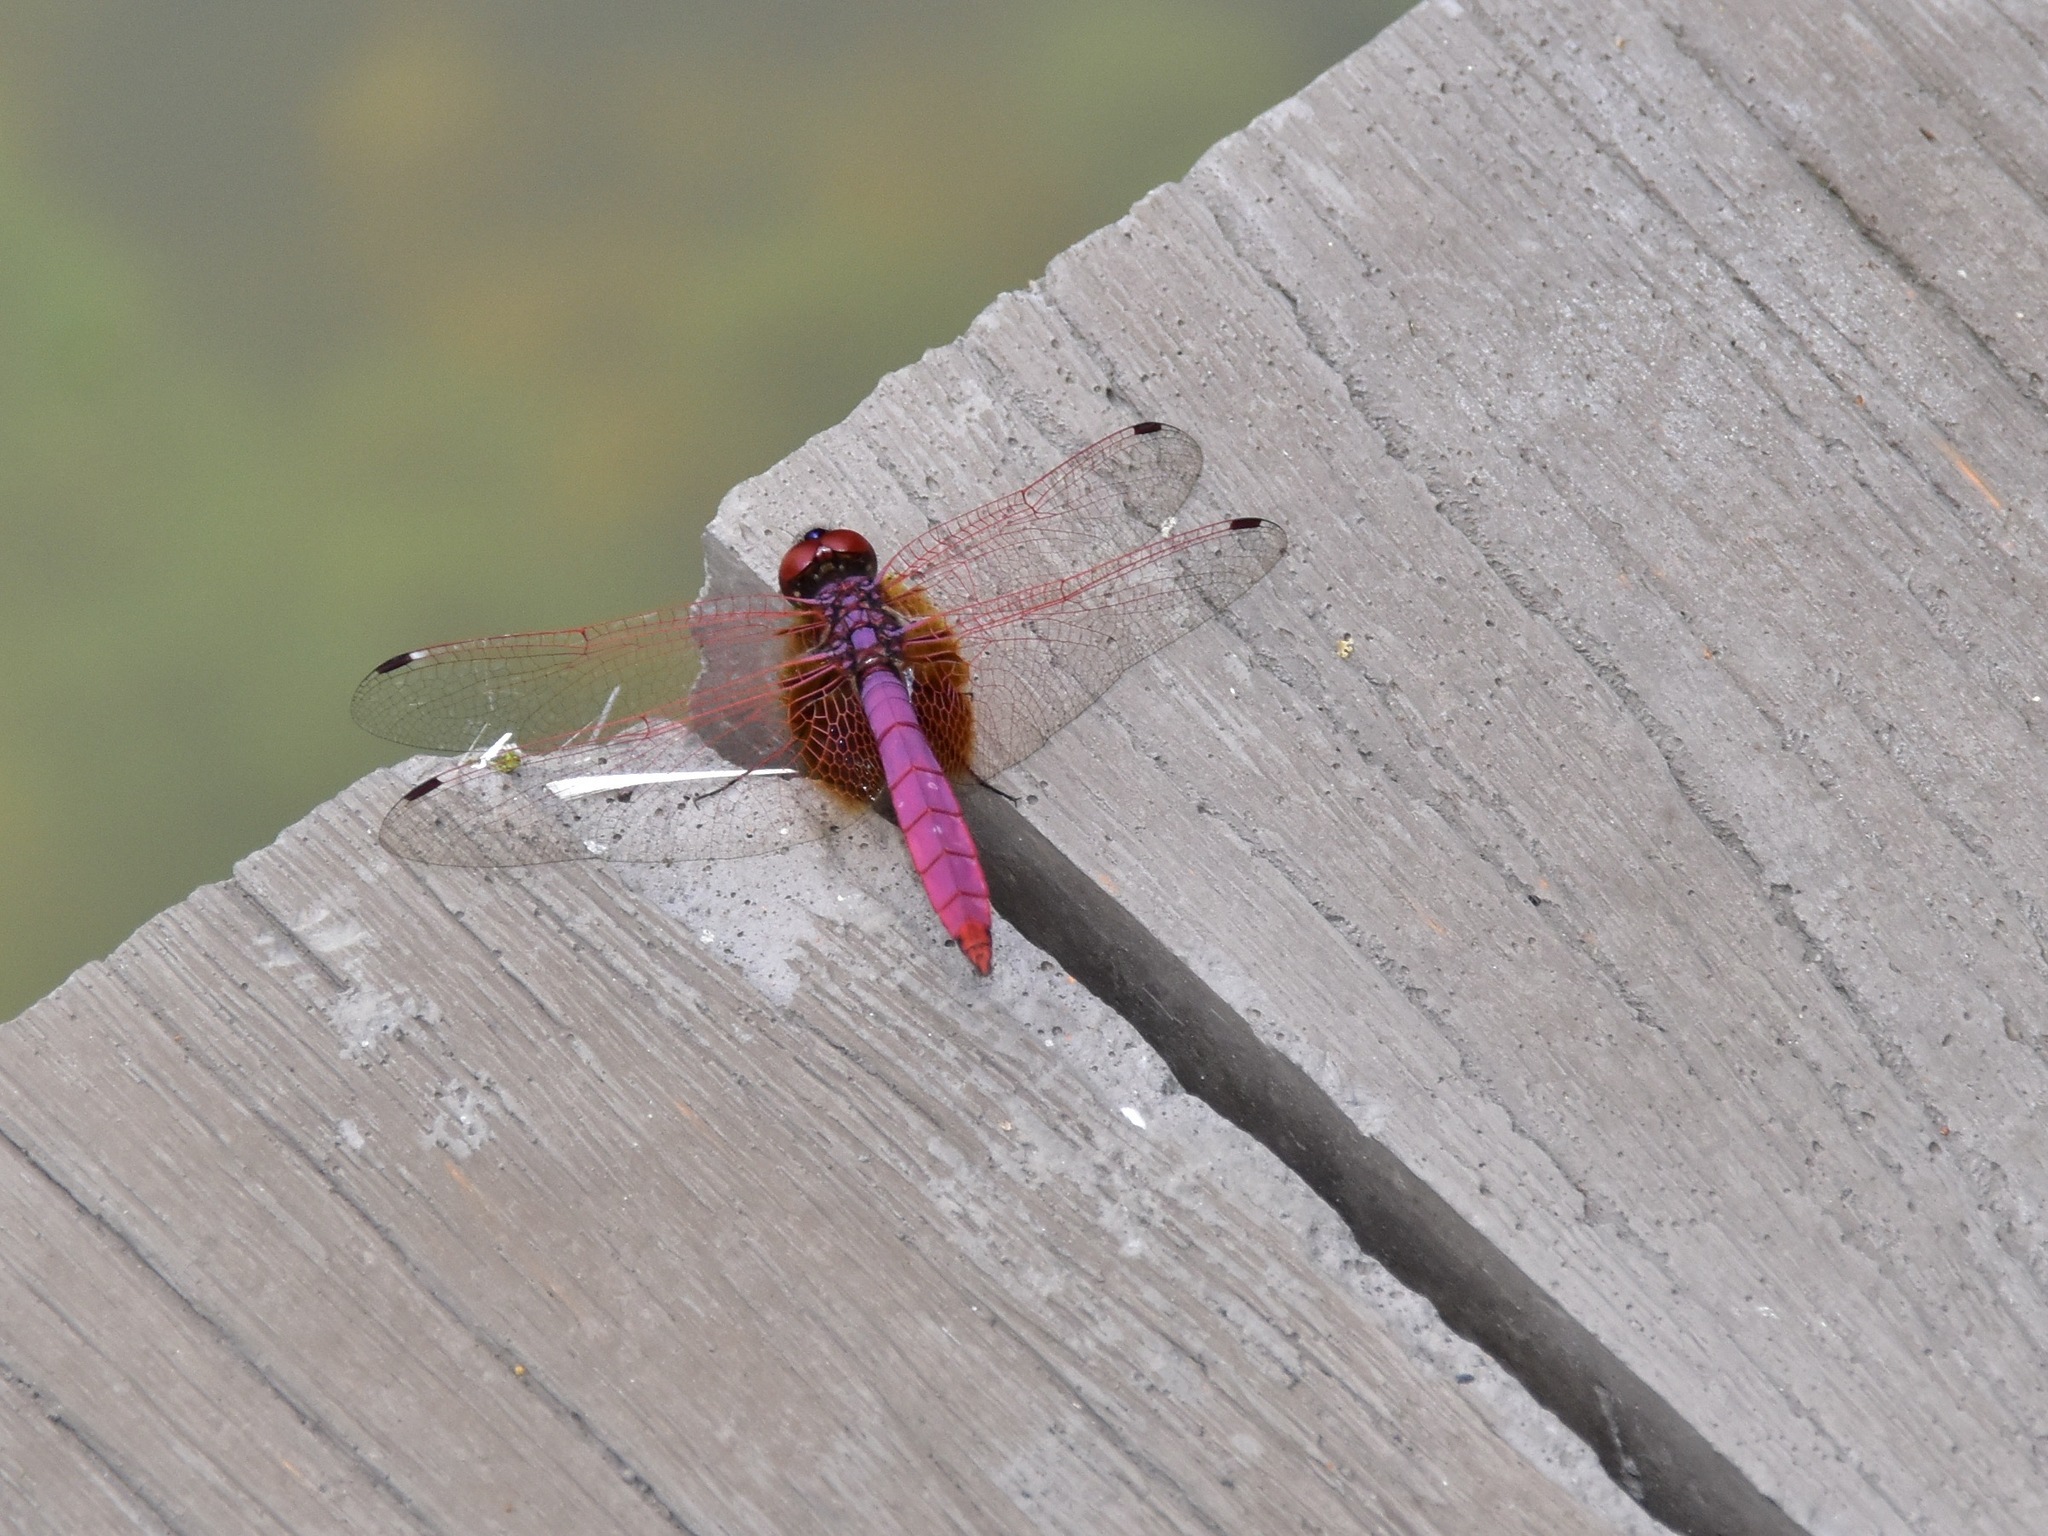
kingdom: Animalia
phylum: Arthropoda
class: Insecta
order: Odonata
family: Libellulidae
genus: Trithemis
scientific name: Trithemis aurora
